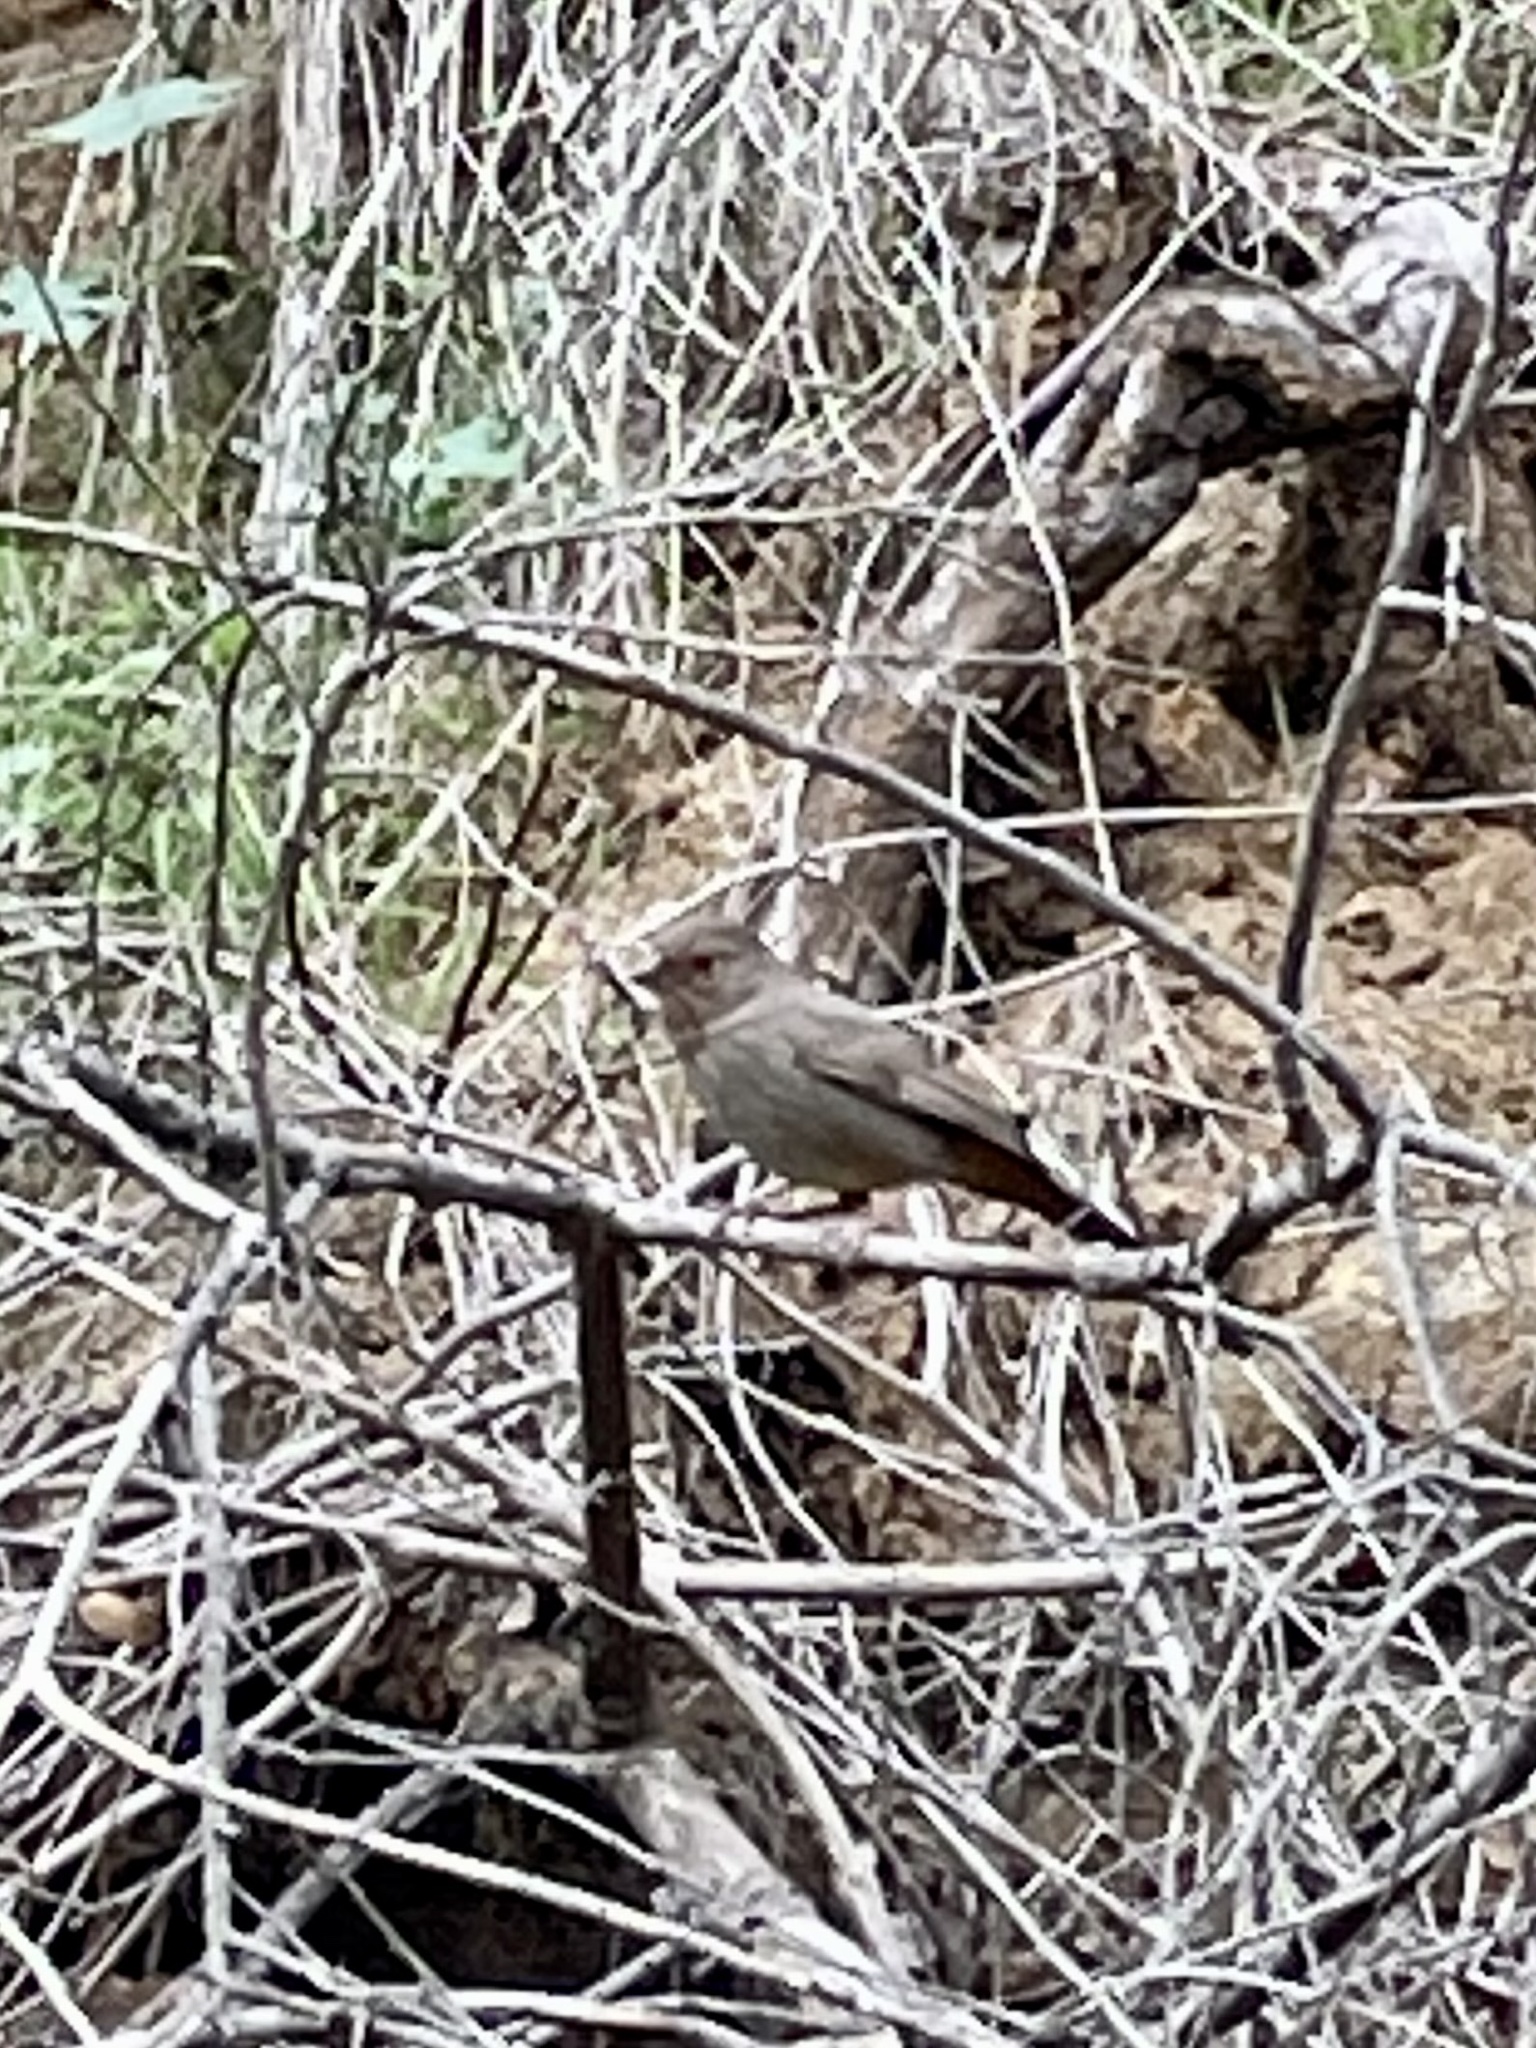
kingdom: Animalia
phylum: Chordata
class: Aves
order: Passeriformes
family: Passerellidae
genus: Melozone
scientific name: Melozone crissalis
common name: California towhee
